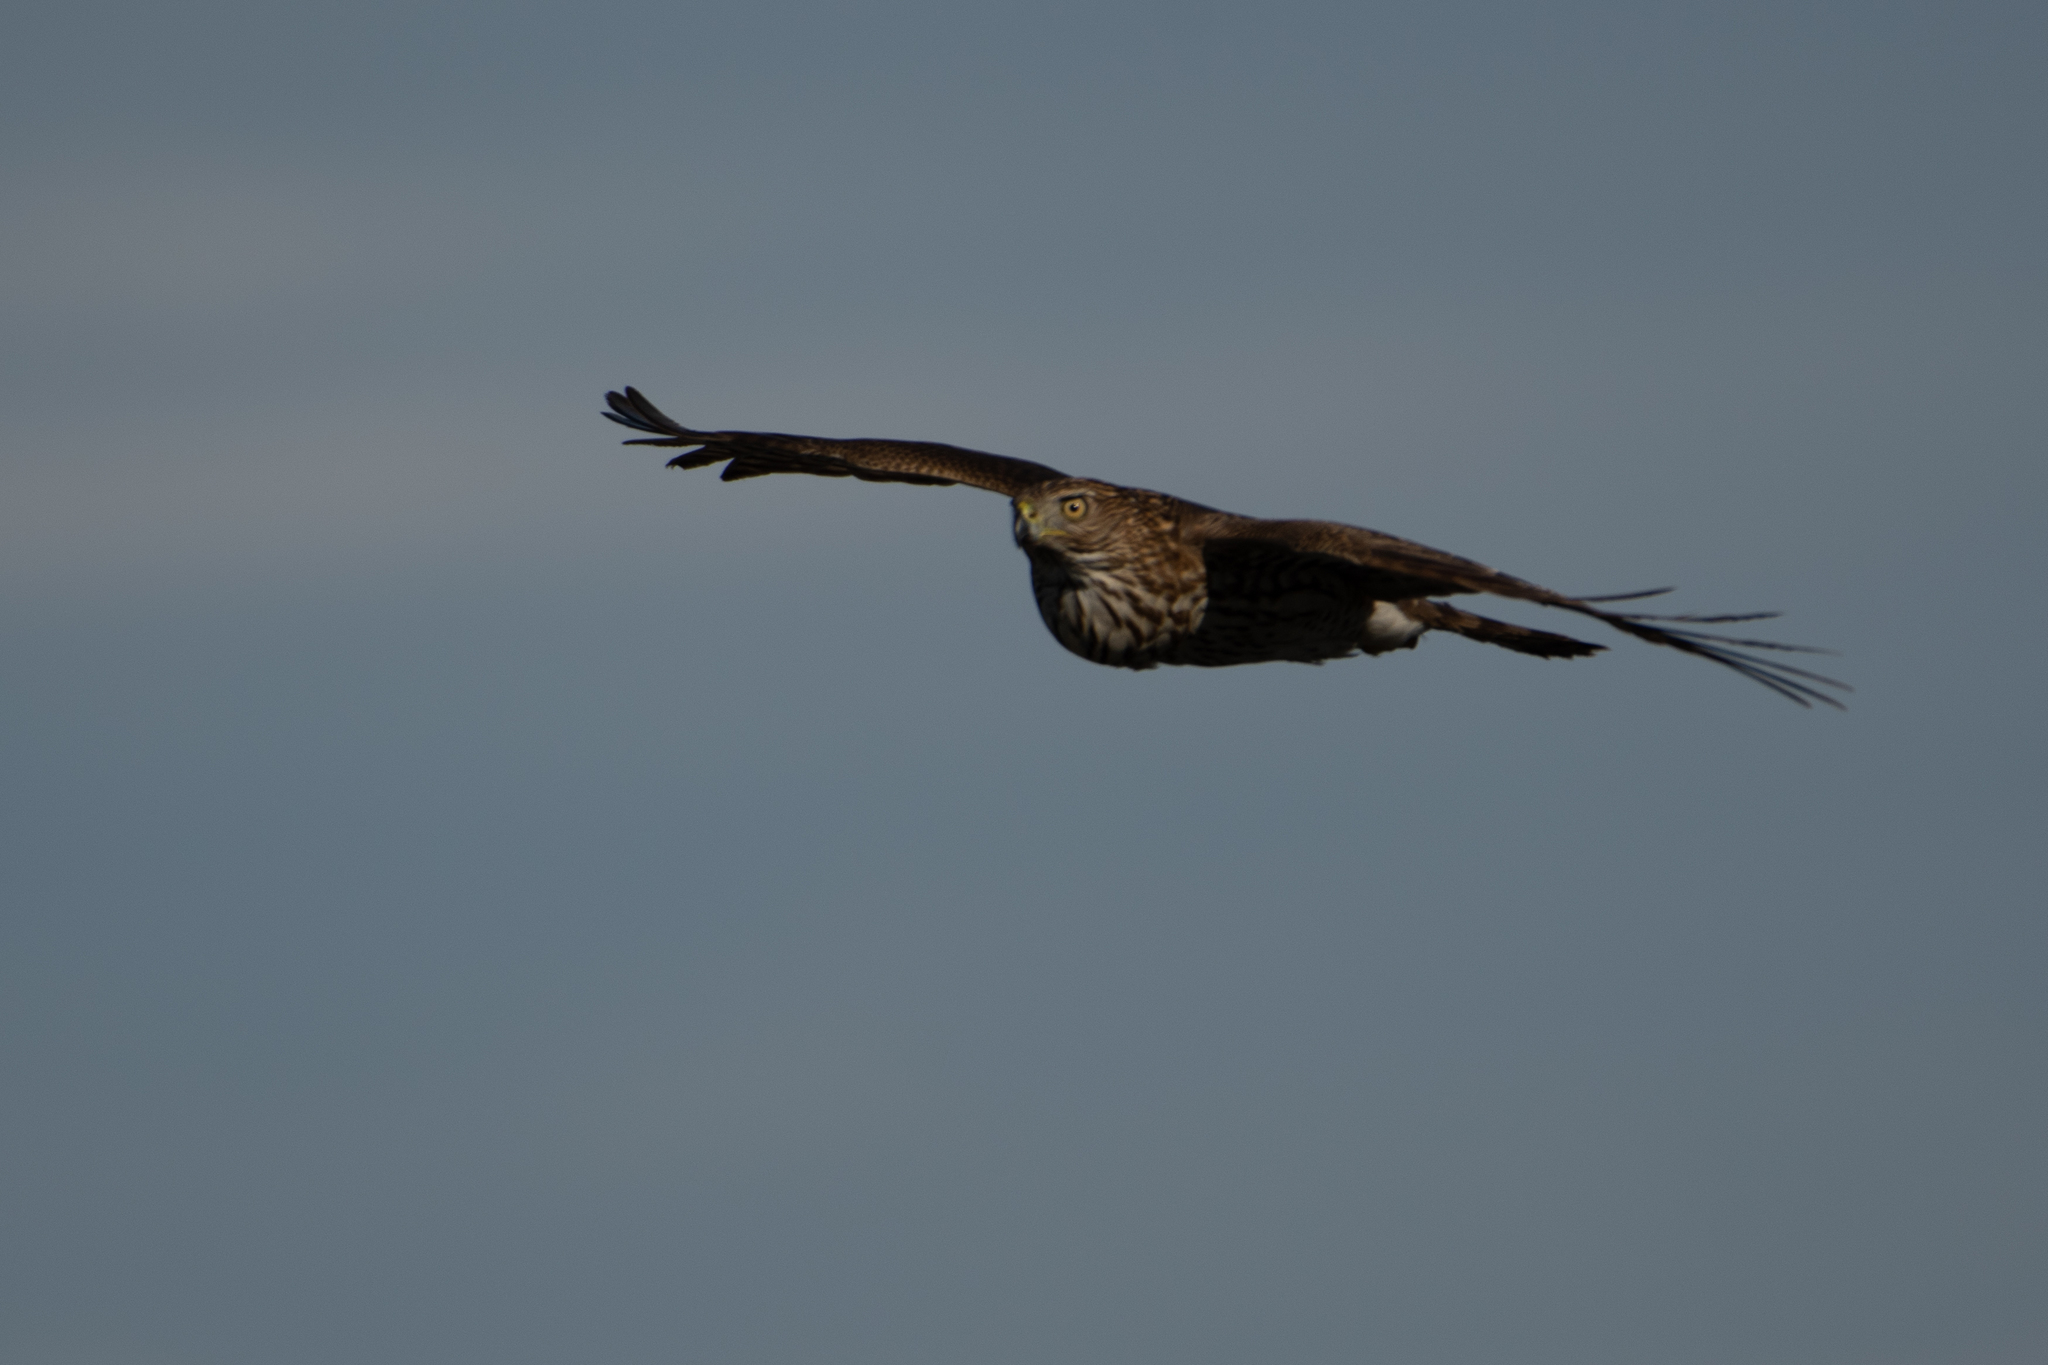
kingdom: Animalia
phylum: Chordata
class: Aves
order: Accipitriformes
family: Accipitridae
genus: Accipiter
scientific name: Accipiter cooperii
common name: Cooper's hawk
